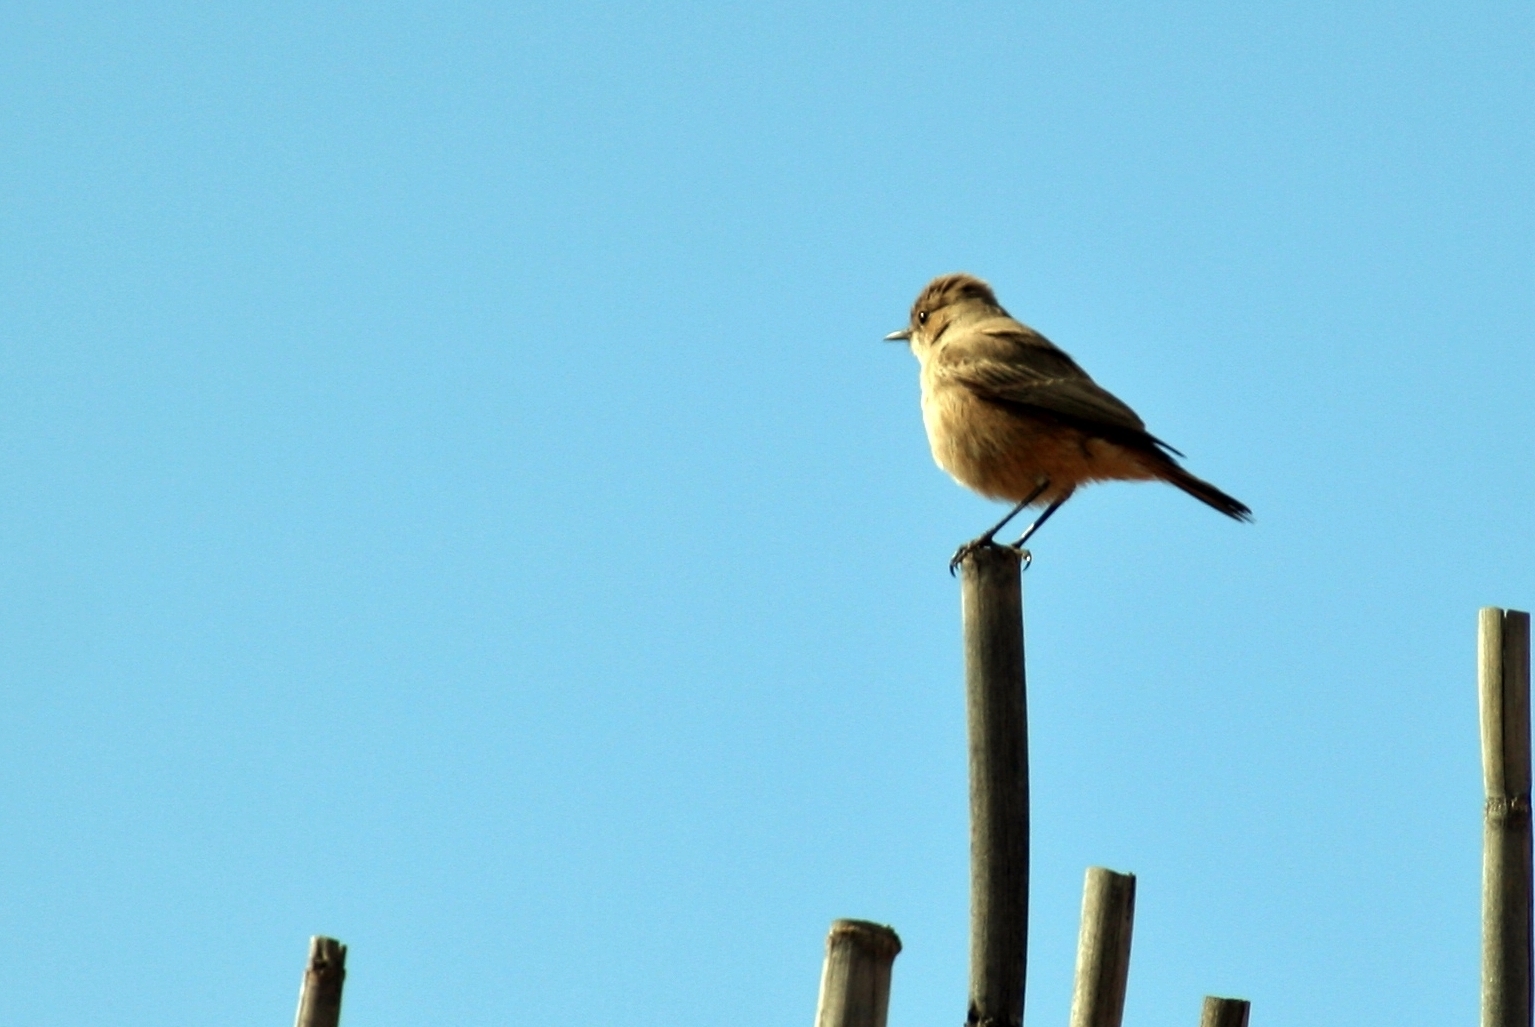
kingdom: Animalia
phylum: Chordata
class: Aves
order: Passeriformes
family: Muscicapidae
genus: Oenanthe
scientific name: Oenanthe familiaris
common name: Familiar chat
